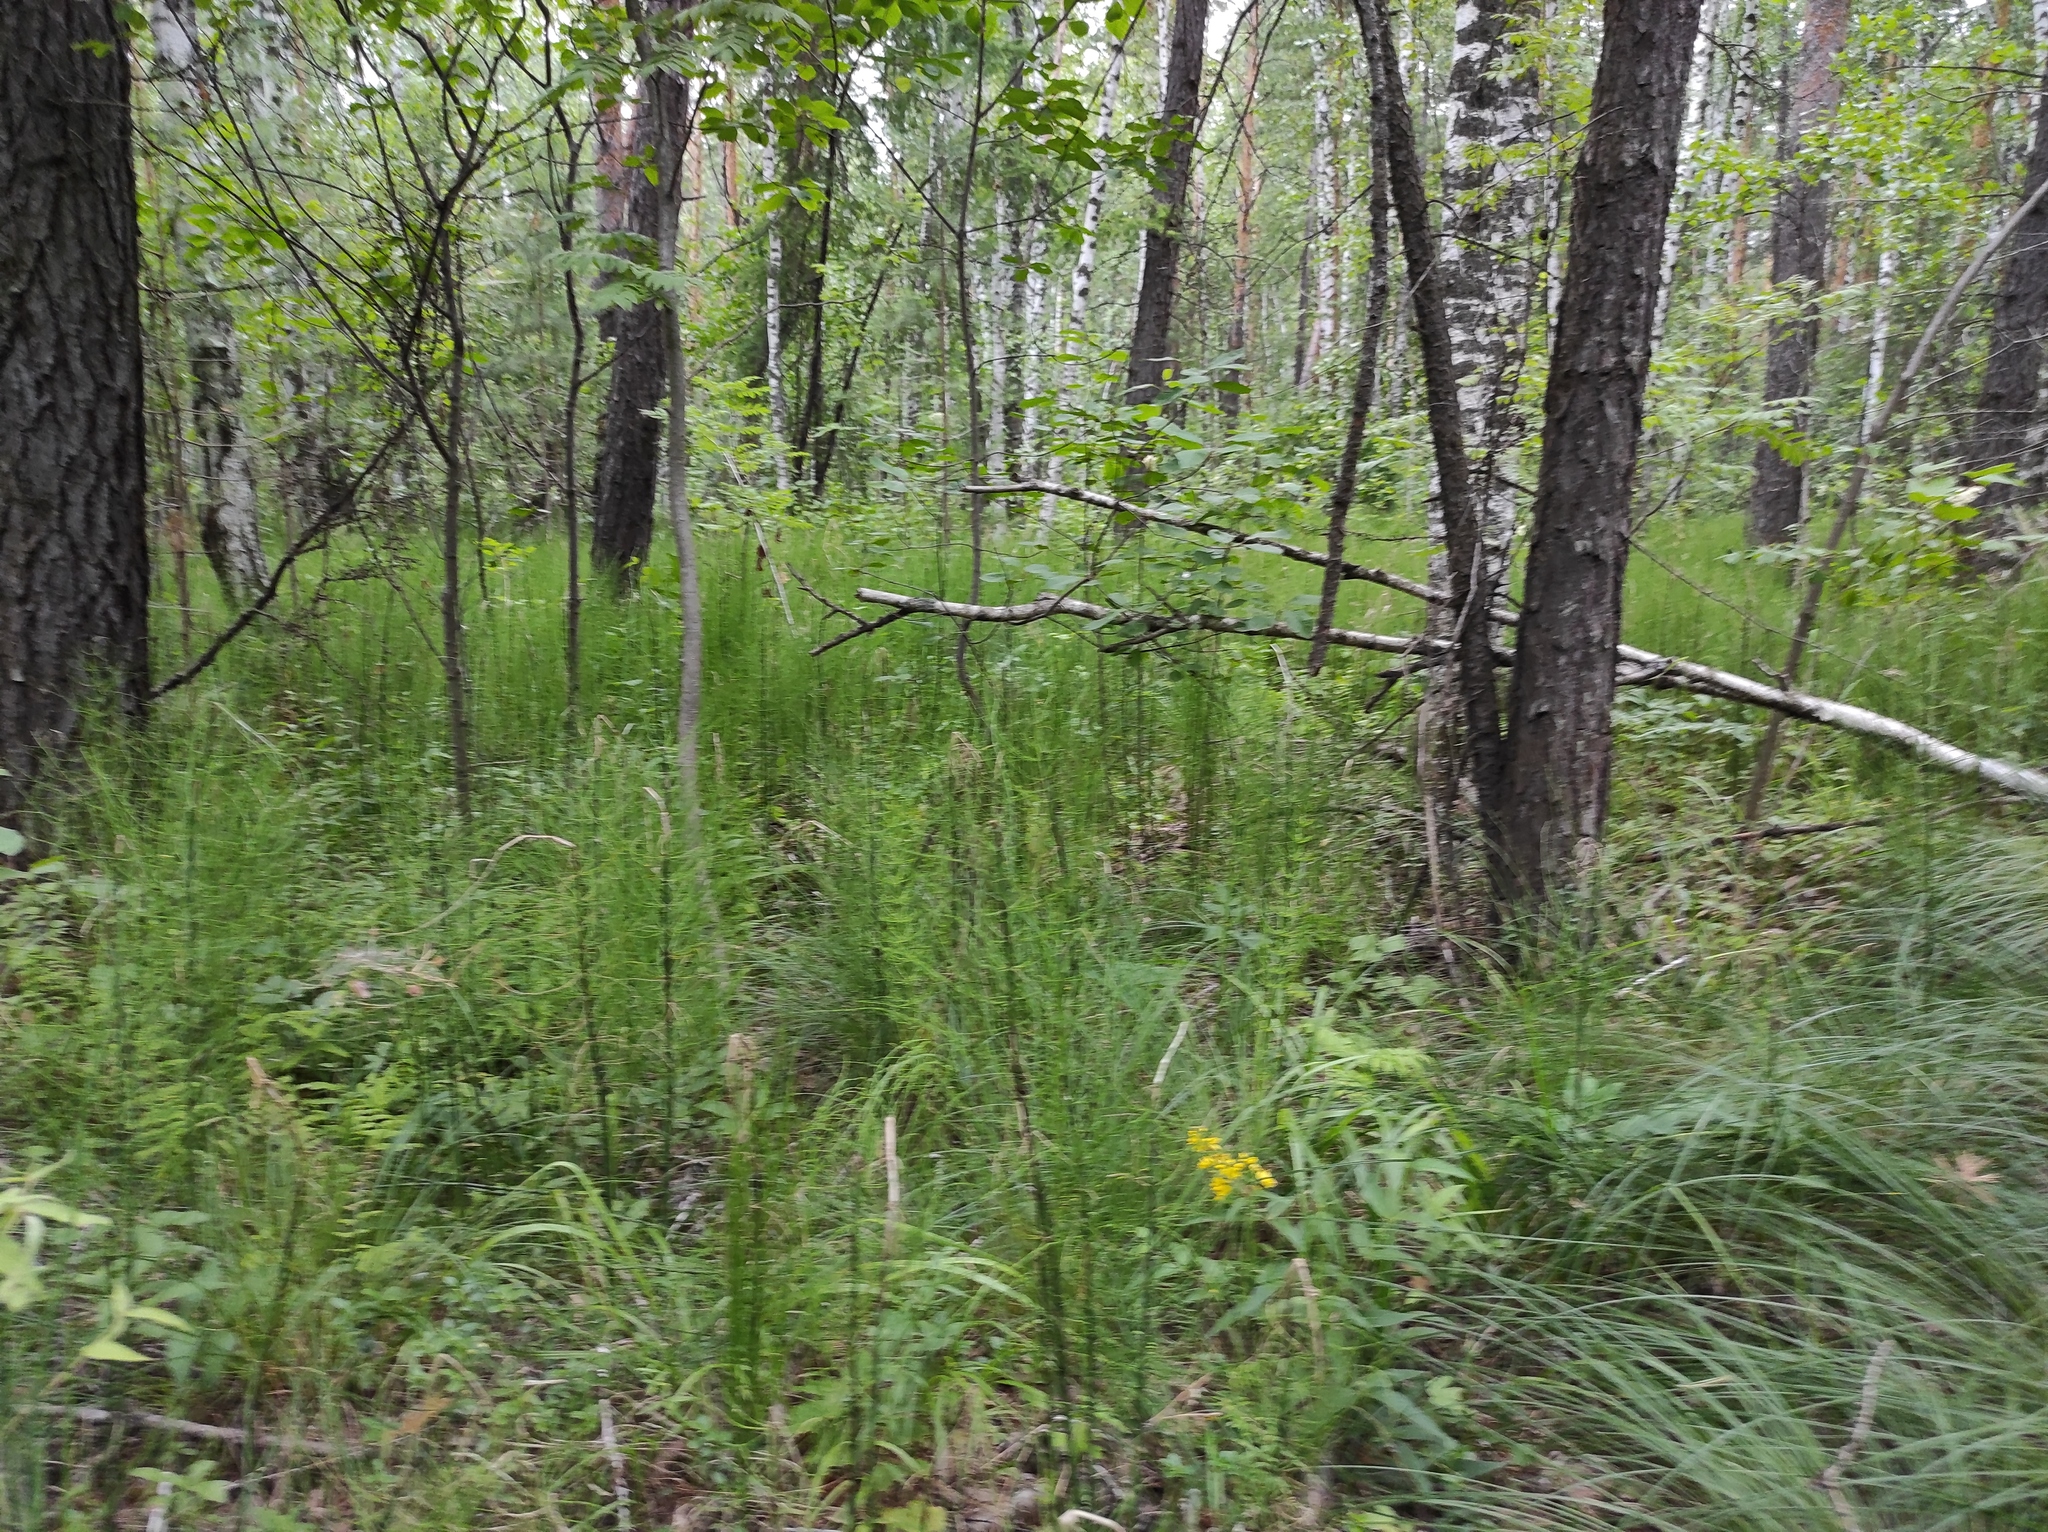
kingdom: Plantae
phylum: Tracheophyta
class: Polypodiopsida
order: Equisetales
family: Equisetaceae
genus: Equisetum
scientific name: Equisetum fluviatile
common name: Water horsetail
